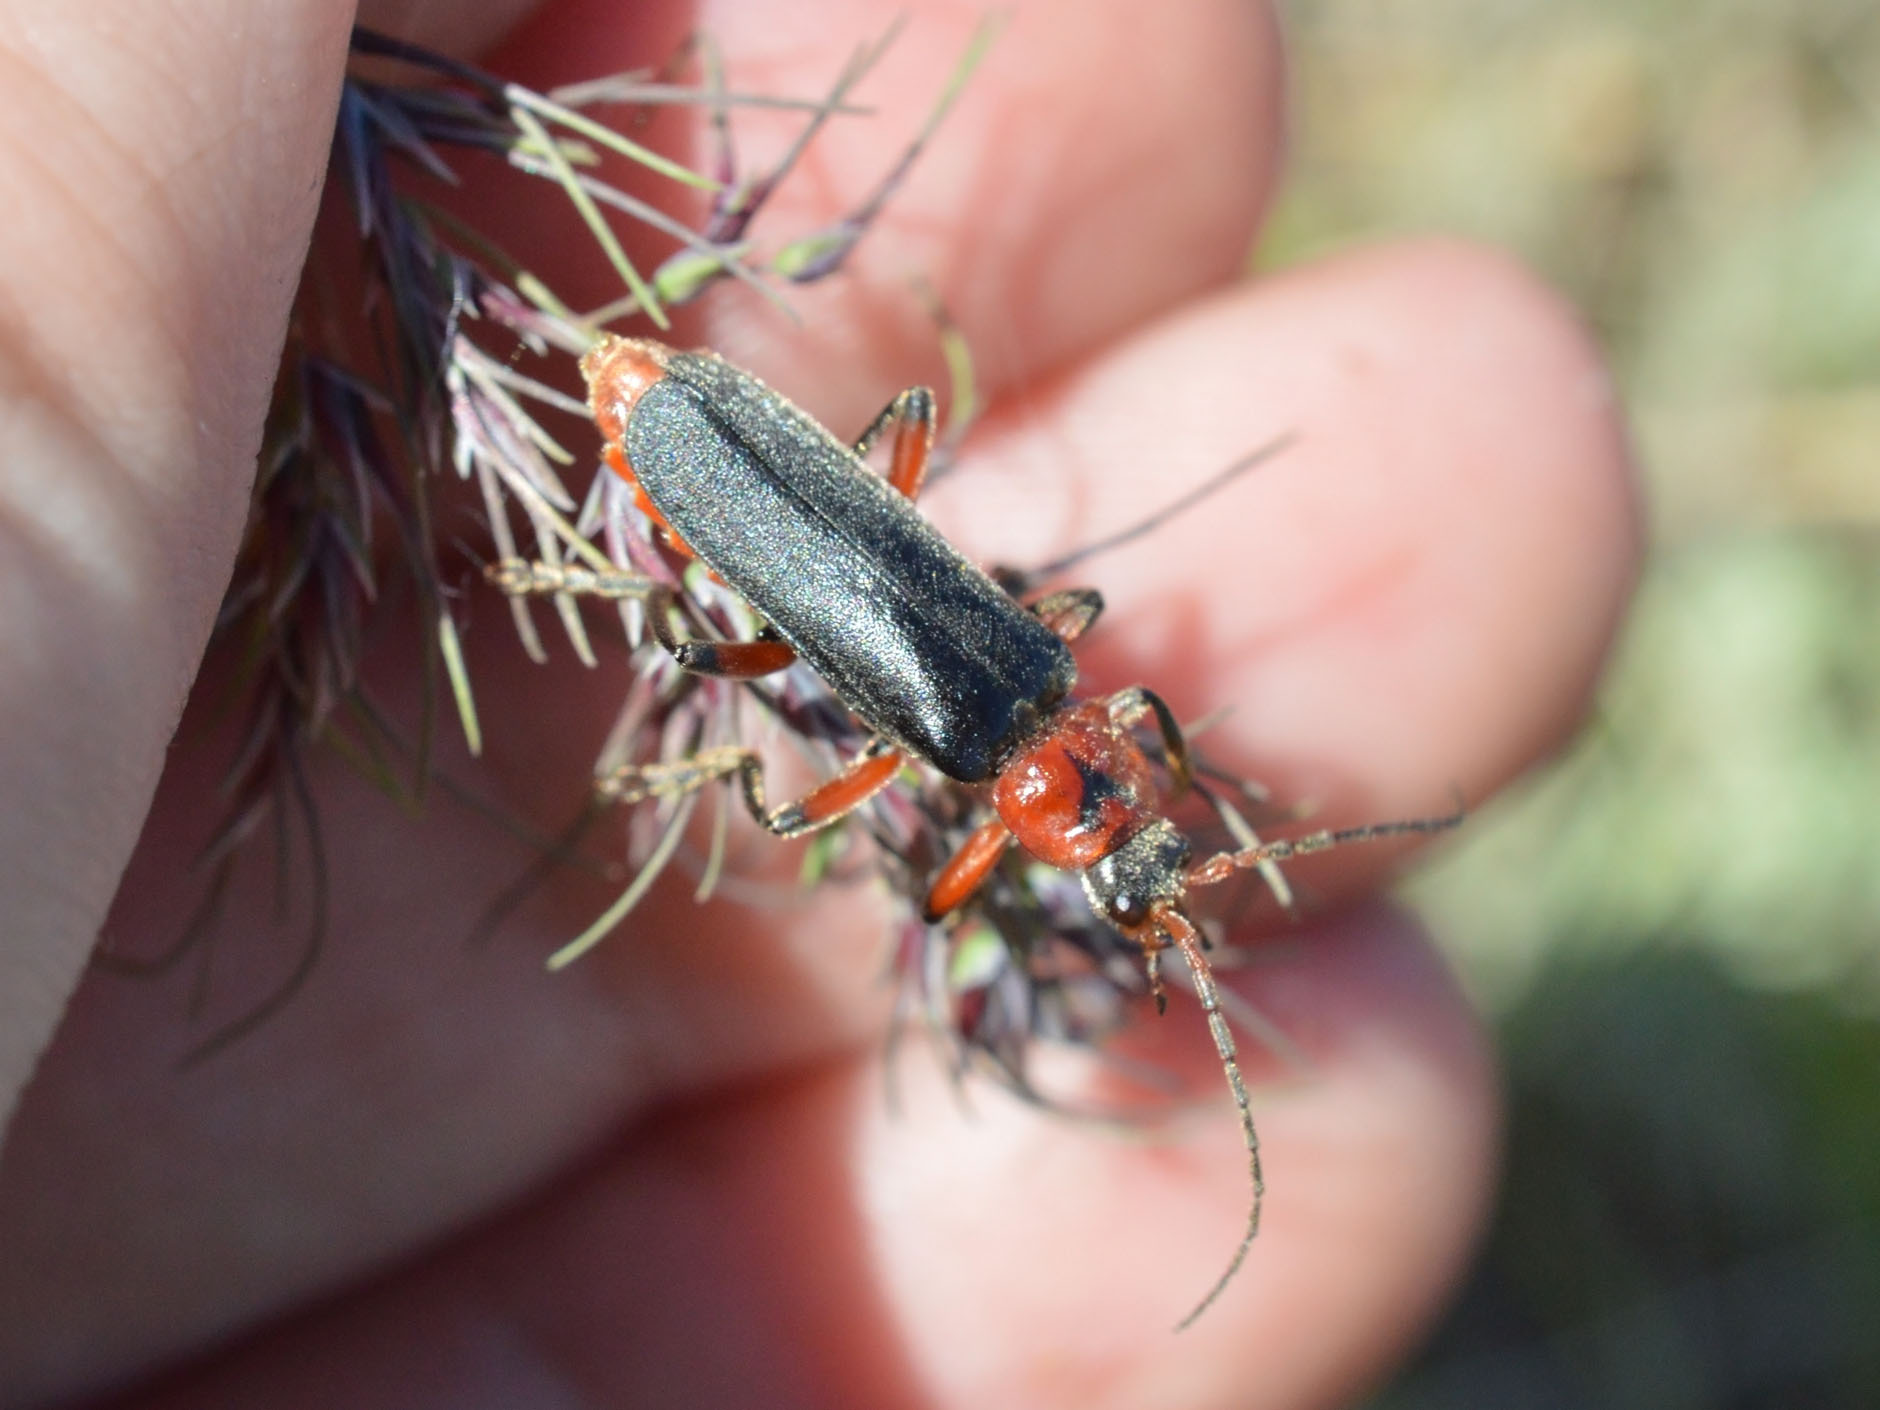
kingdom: Animalia
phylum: Arthropoda
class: Insecta
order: Coleoptera
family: Cantharidae
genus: Cantharis
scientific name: Cantharis rustica
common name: Soldier beetle
